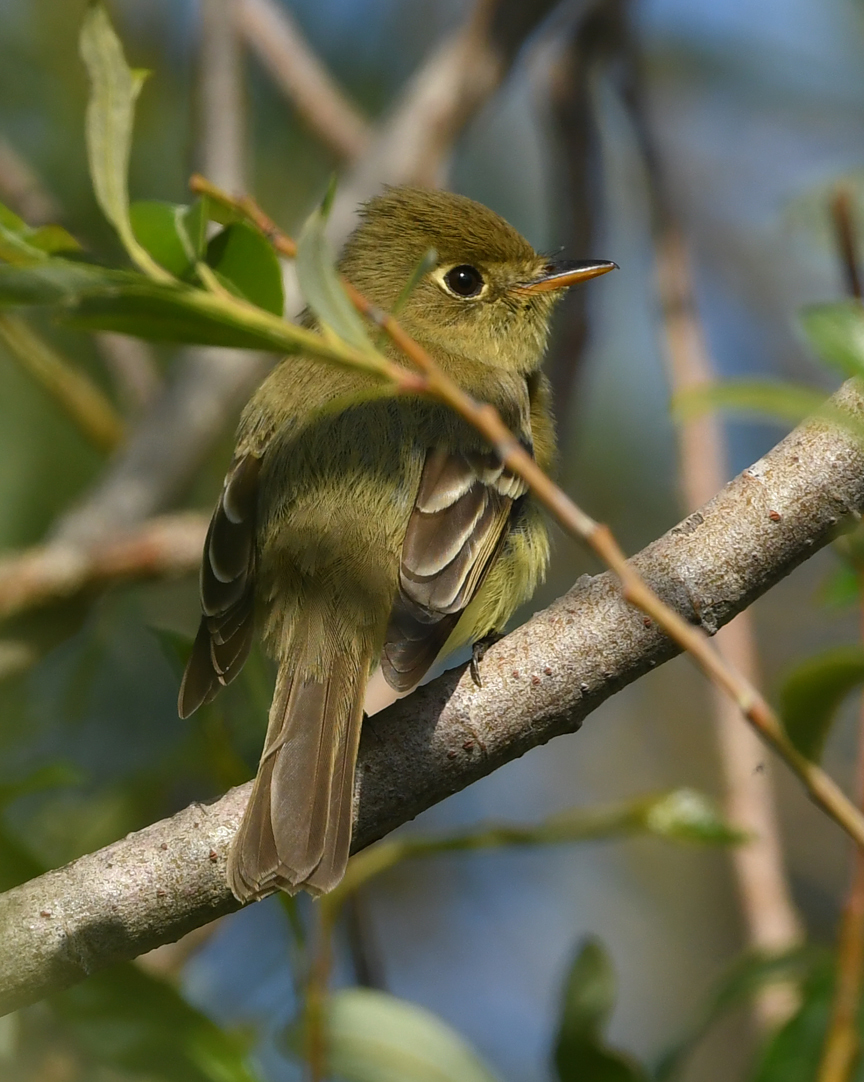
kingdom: Animalia
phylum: Chordata
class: Aves
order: Passeriformes
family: Tyrannidae
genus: Empidonax
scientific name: Empidonax difficilis
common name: Pacific-slope flycatcher
